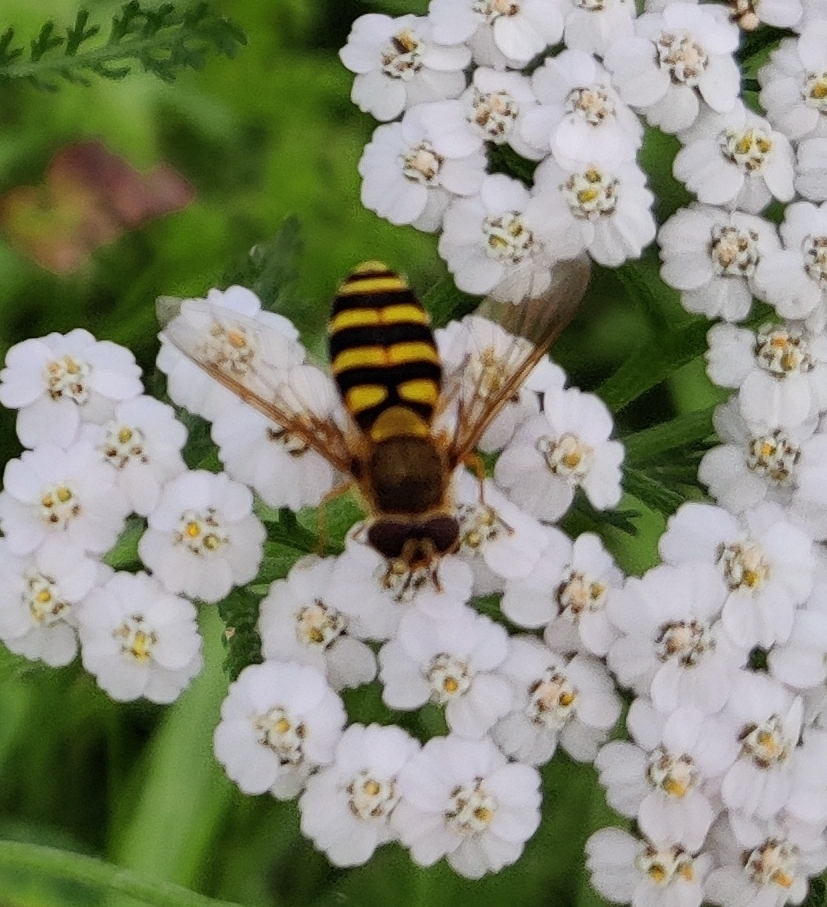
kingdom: Animalia
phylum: Arthropoda
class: Insecta
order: Diptera
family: Syrphidae
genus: Syrphus
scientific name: Syrphus
